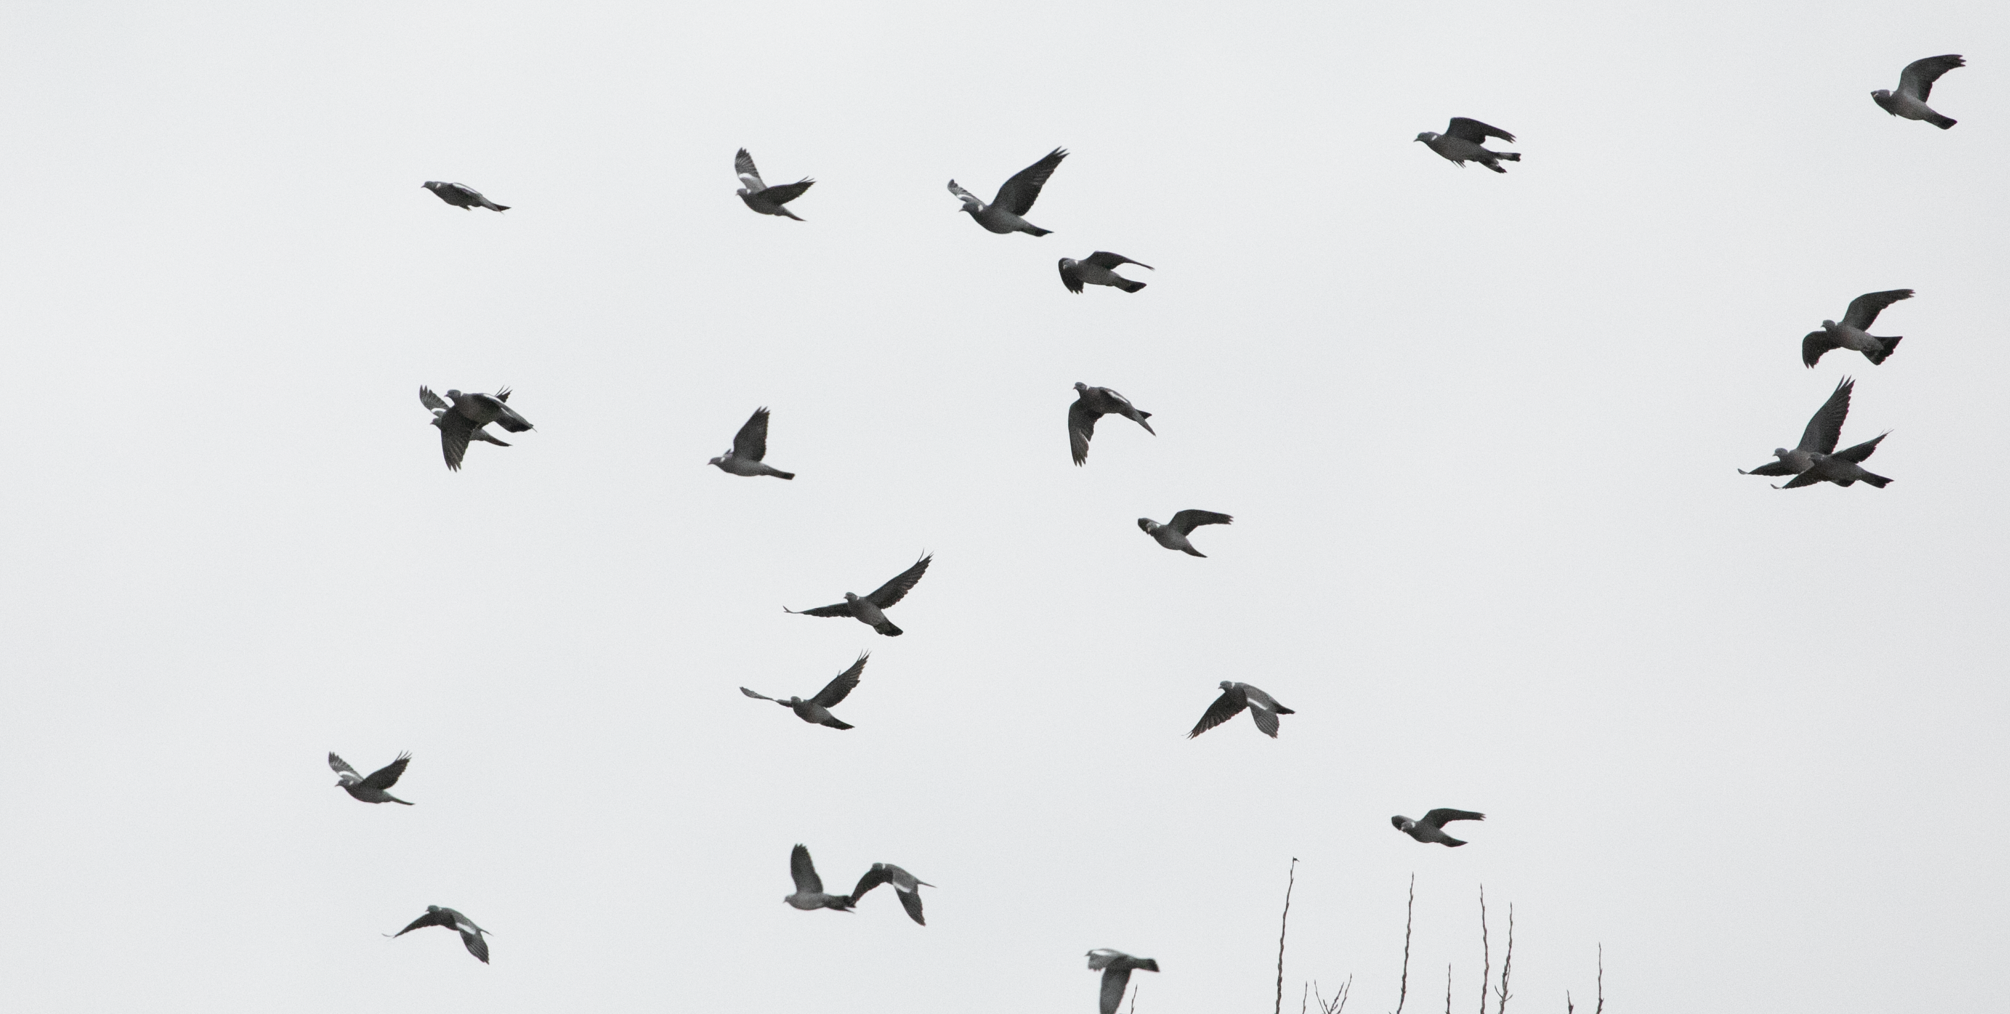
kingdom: Animalia
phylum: Chordata
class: Aves
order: Columbiformes
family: Columbidae
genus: Columba
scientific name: Columba palumbus
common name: Common wood pigeon
